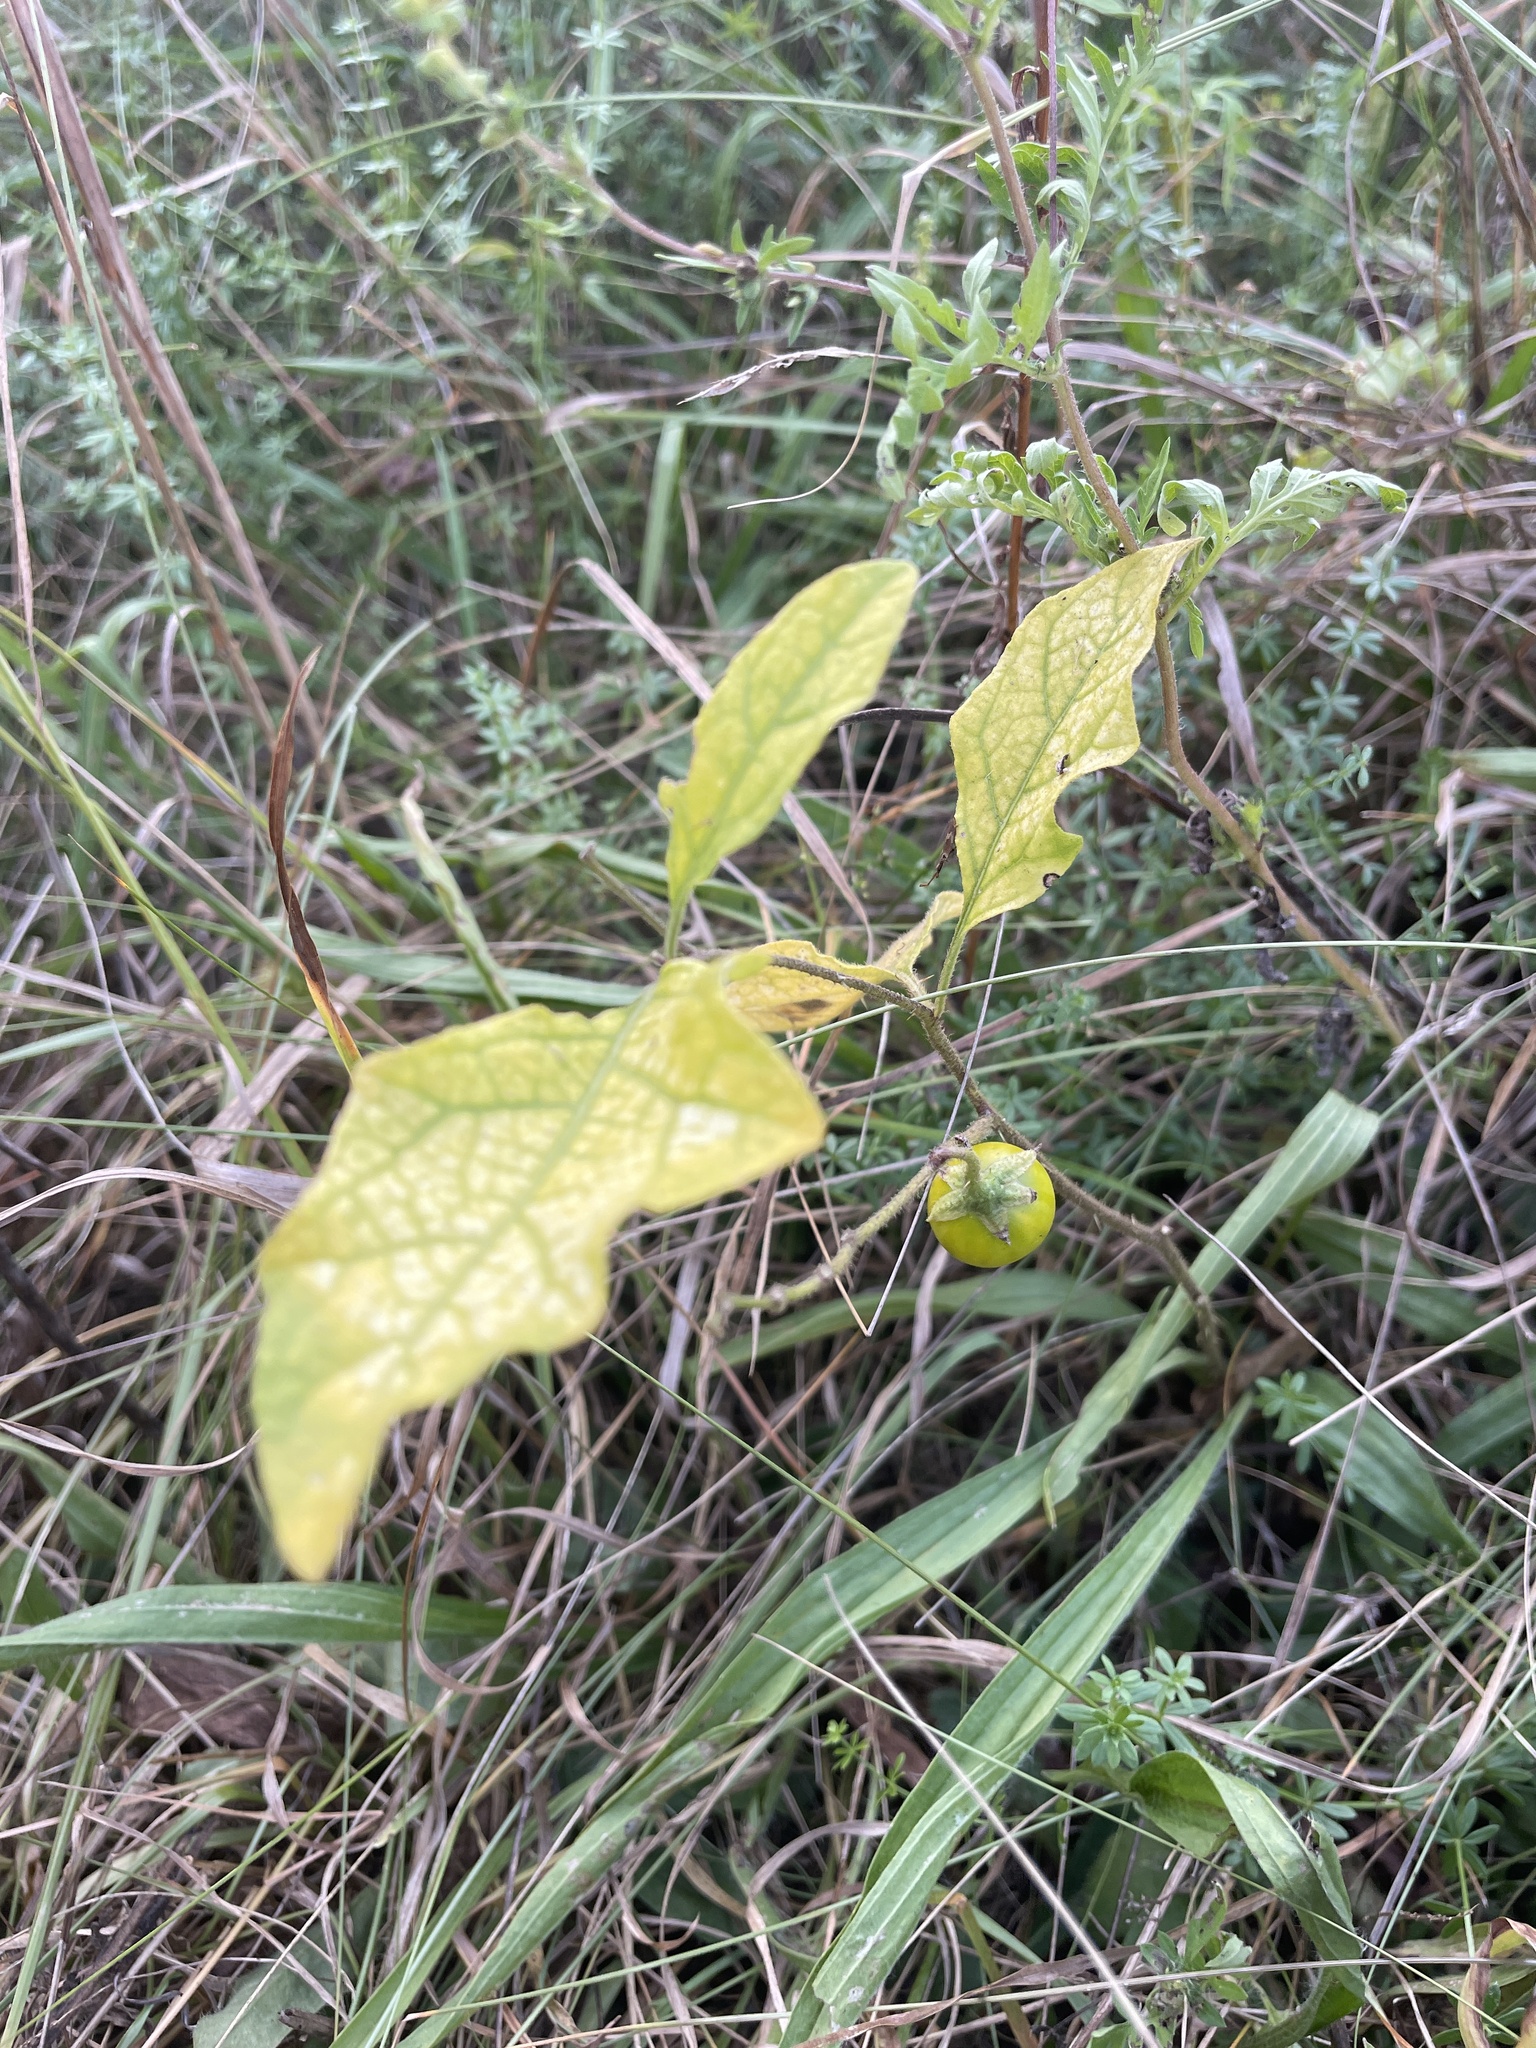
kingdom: Plantae
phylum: Tracheophyta
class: Magnoliopsida
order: Solanales
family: Solanaceae
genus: Solanum
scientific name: Solanum carolinense
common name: Horse-nettle
